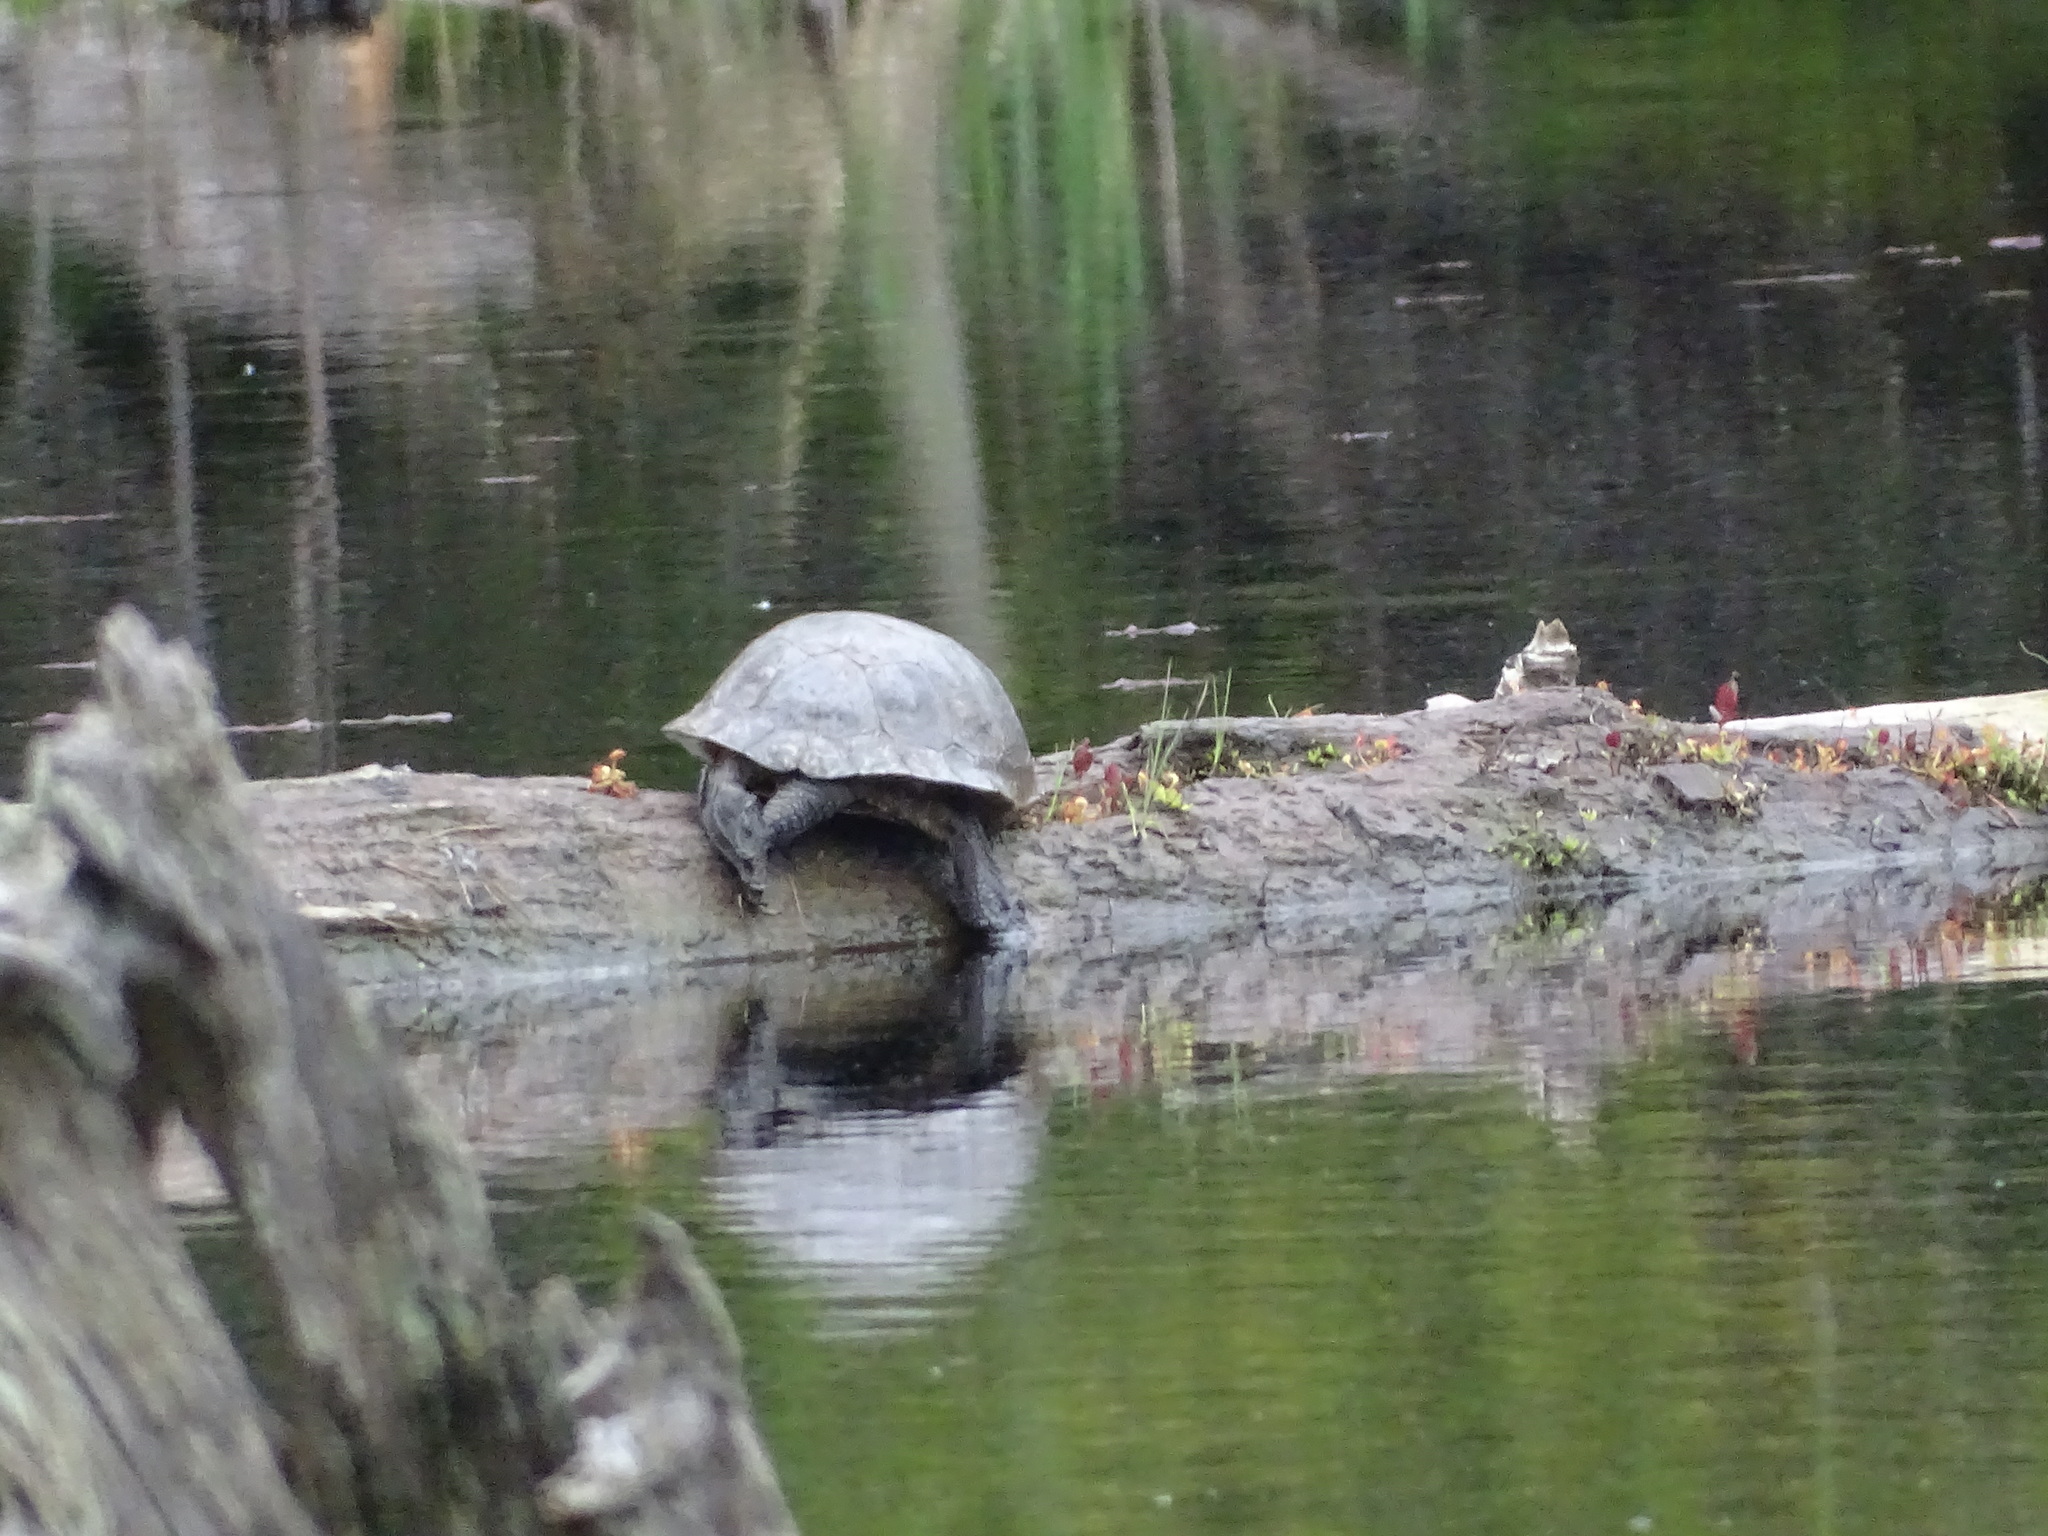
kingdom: Animalia
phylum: Chordata
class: Testudines
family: Emydidae
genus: Emys
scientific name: Emys blandingii
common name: Blanding's turtle
